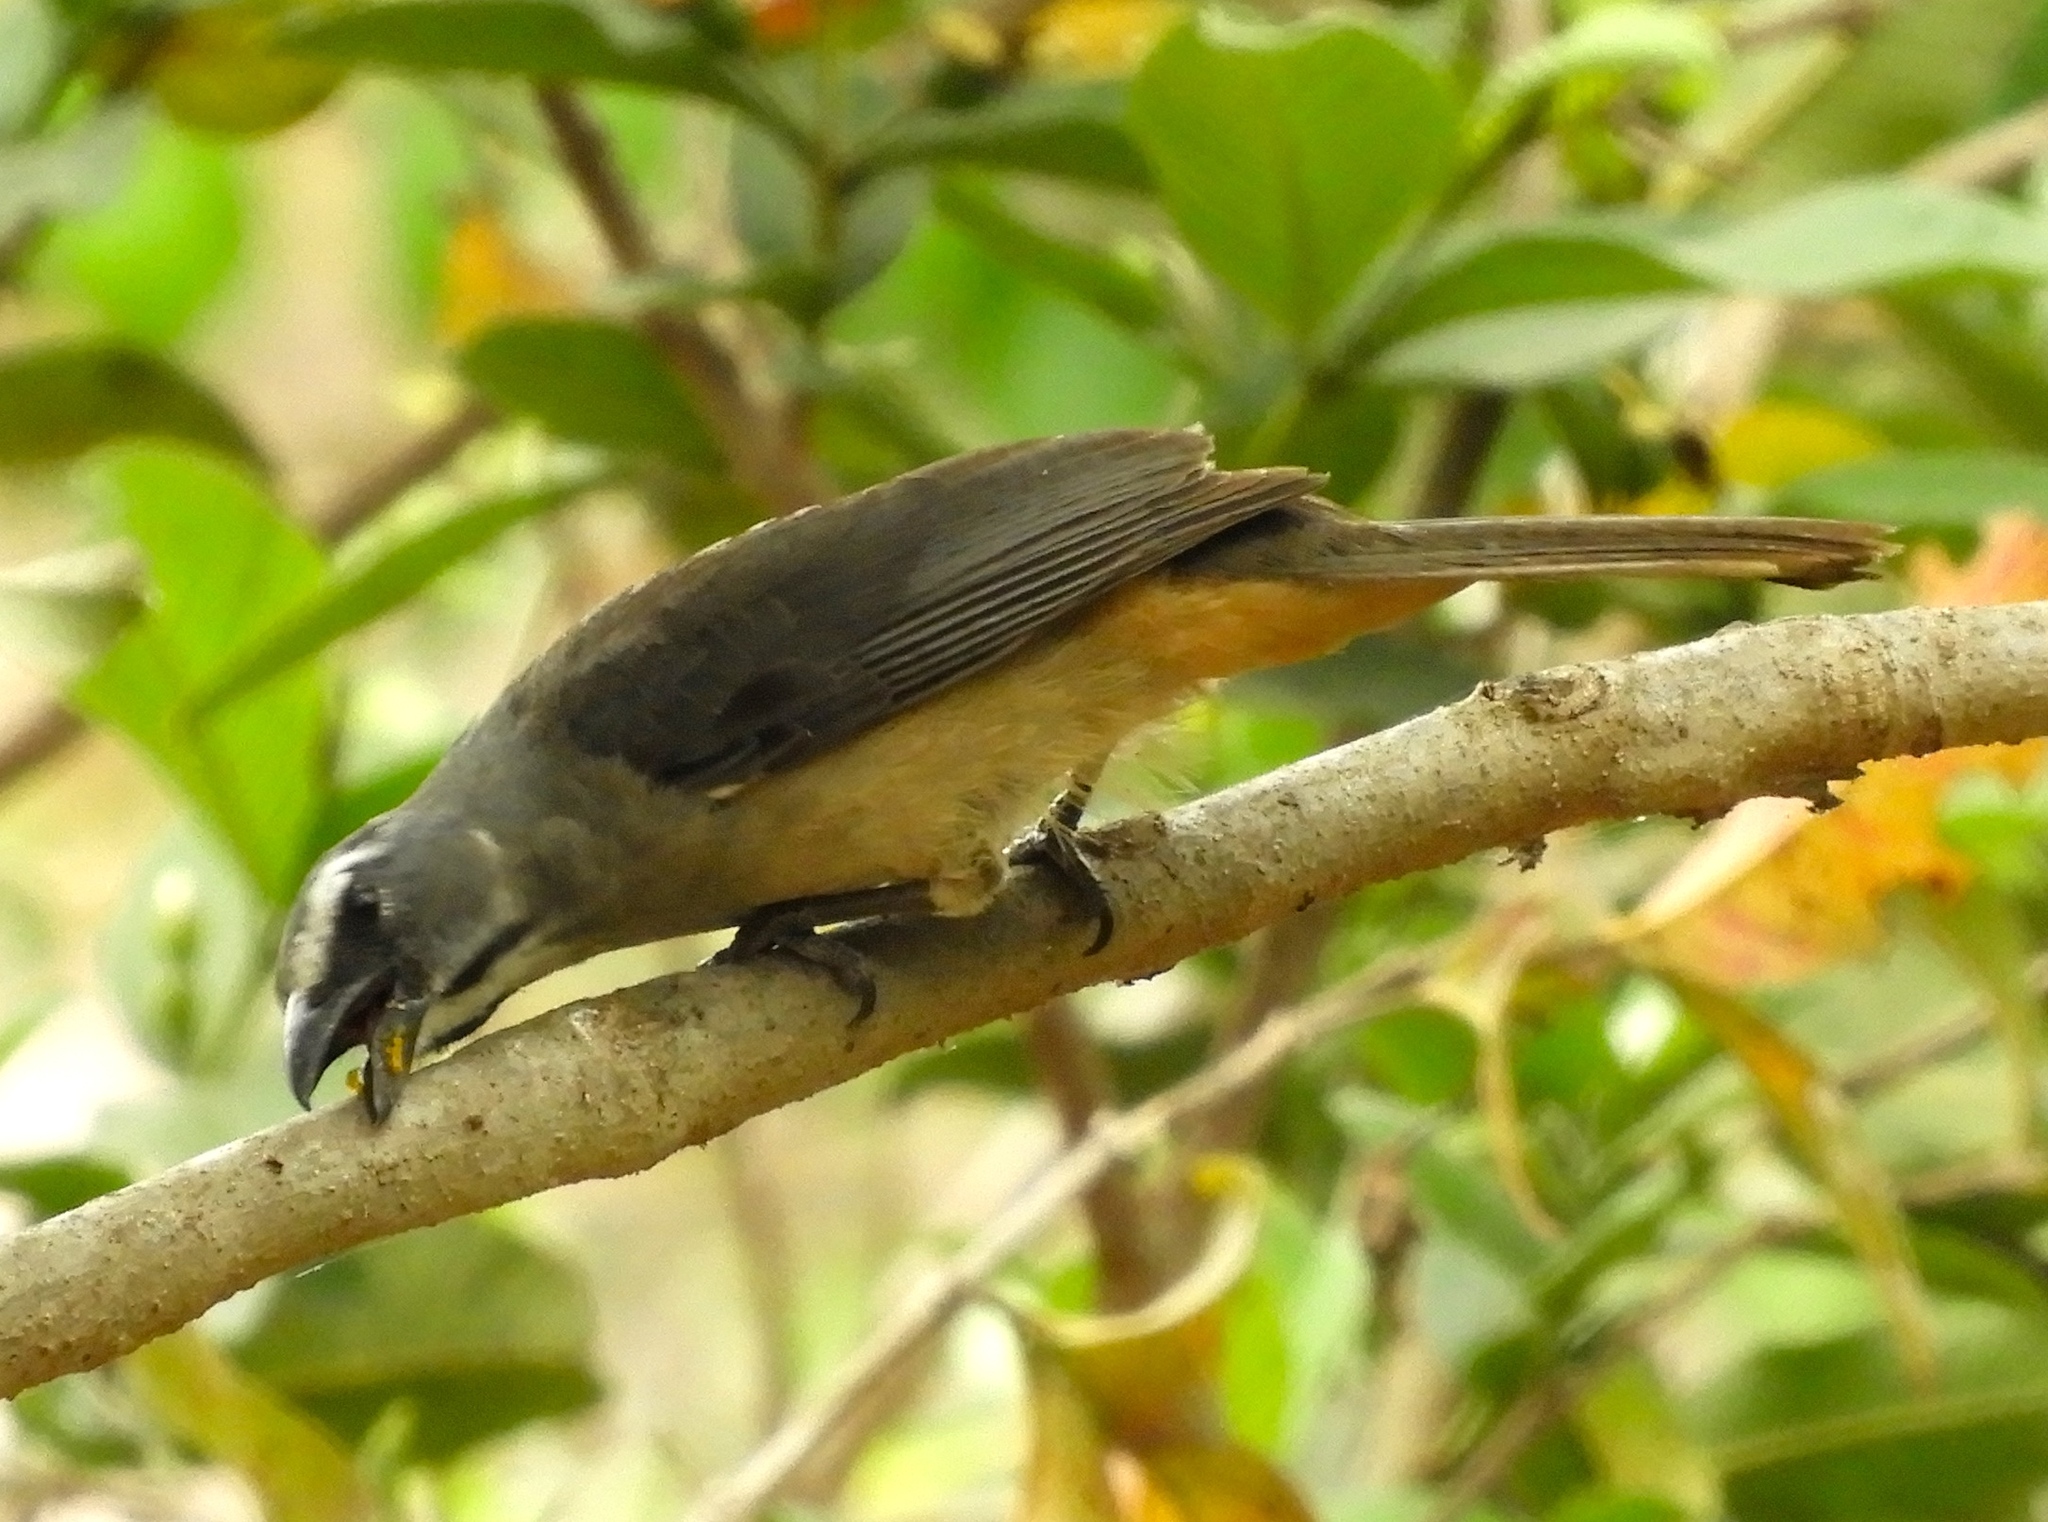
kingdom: Animalia
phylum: Chordata
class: Aves
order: Passeriformes
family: Thraupidae
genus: Saltator
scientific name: Saltator grandis
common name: Cinnamon-bellied saltator
